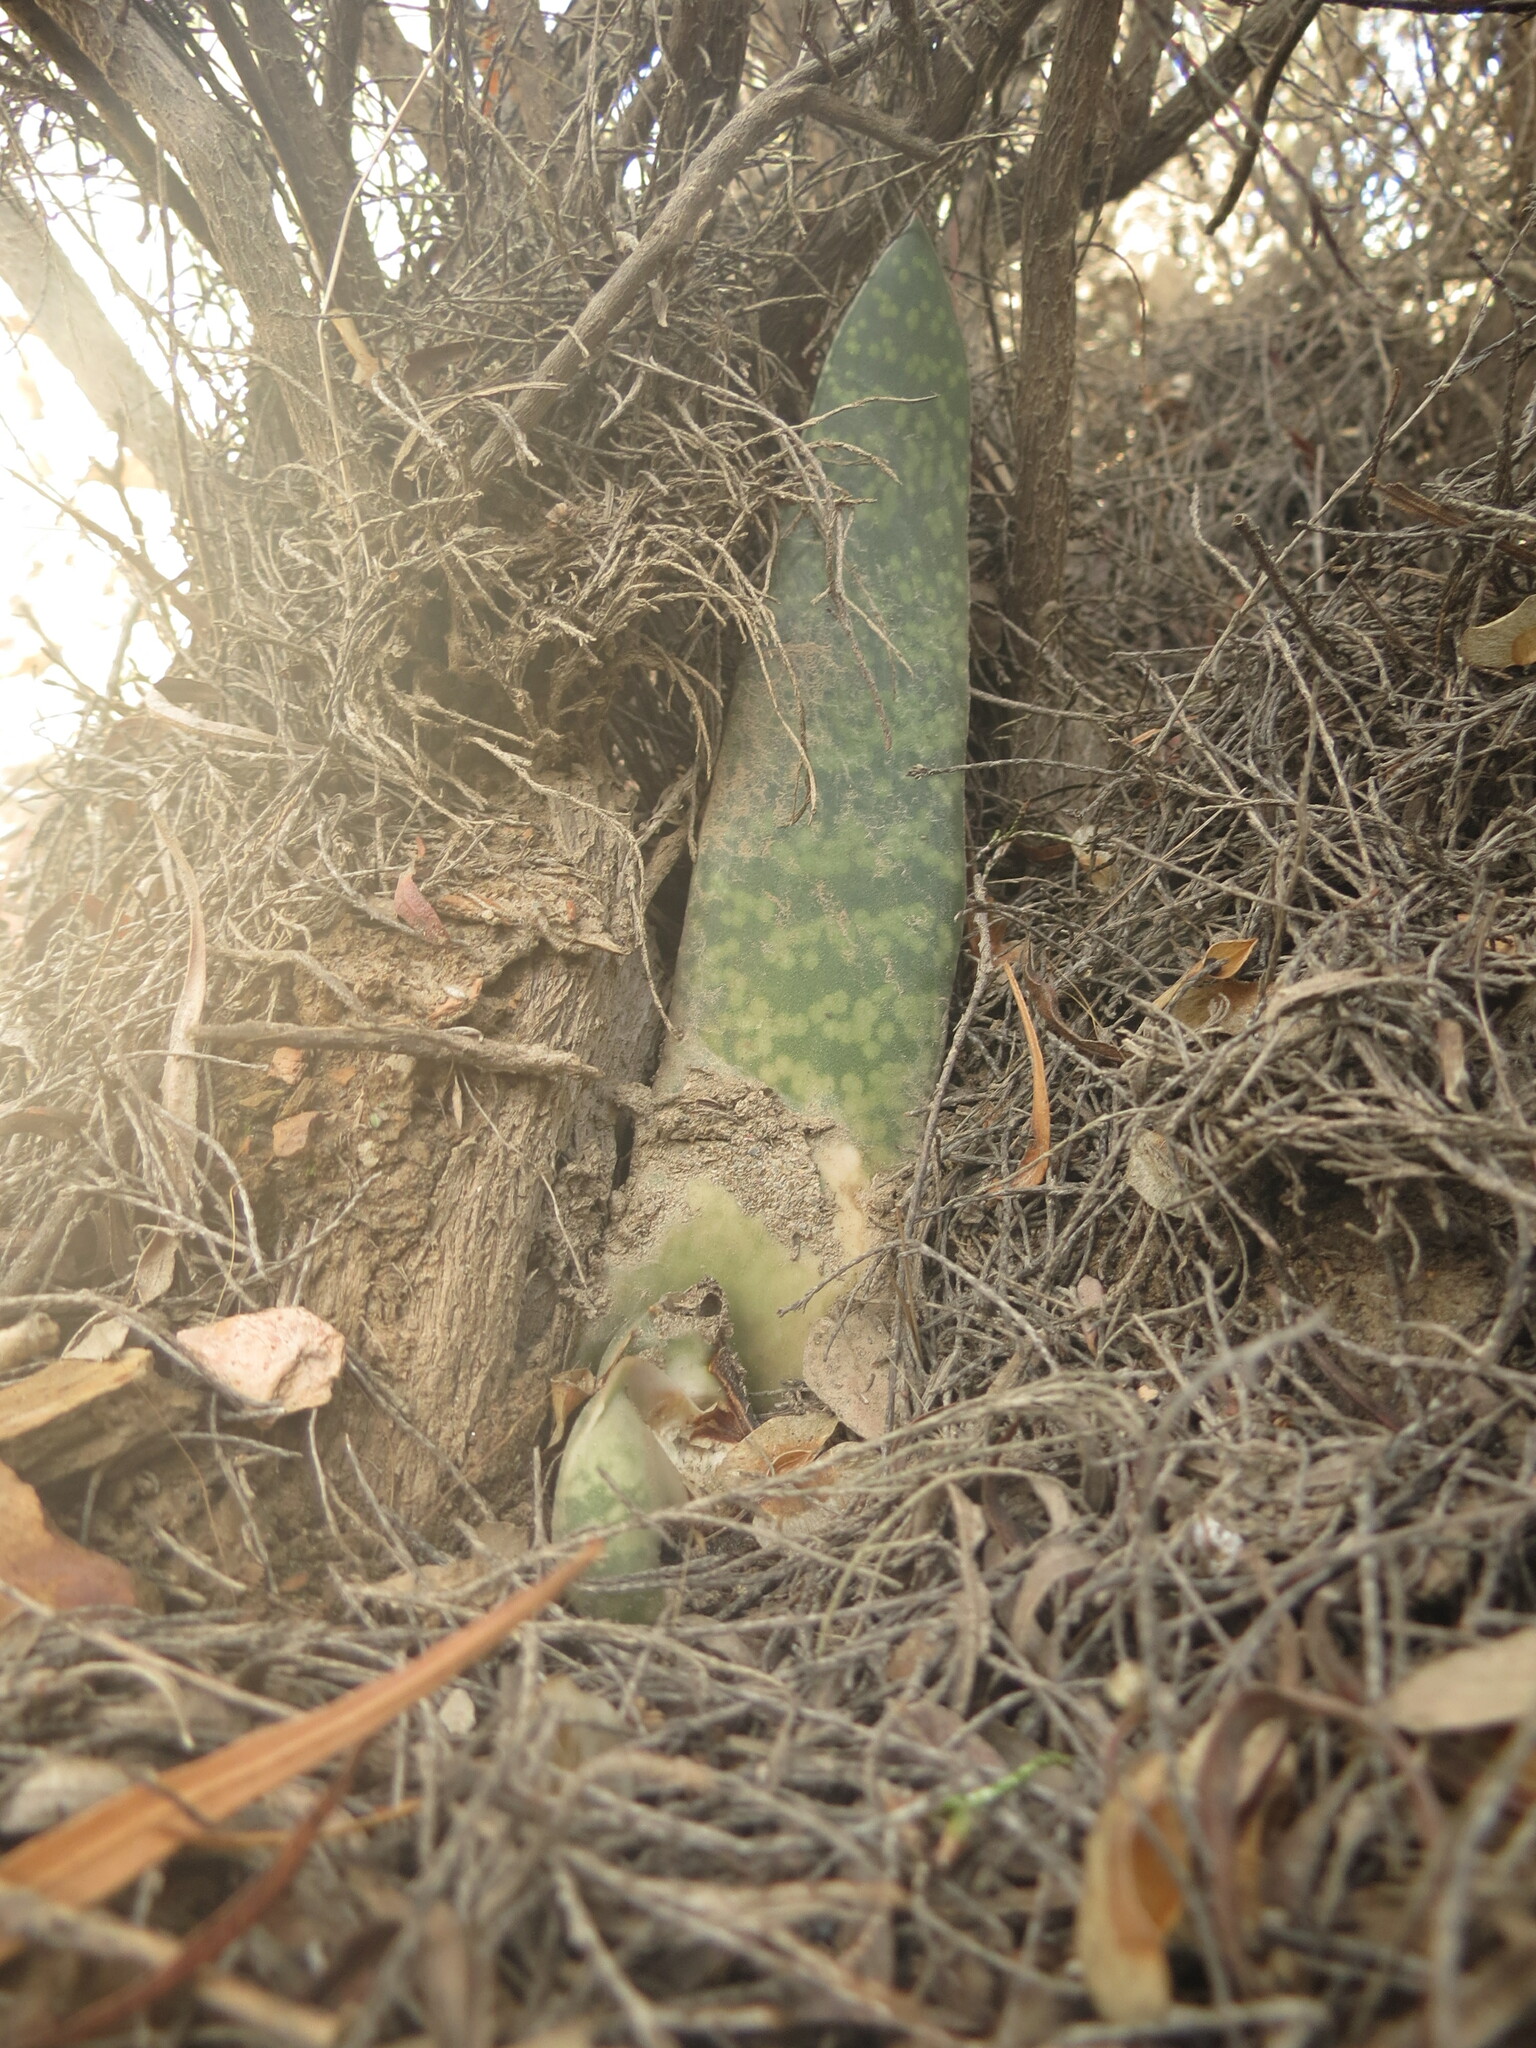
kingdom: Plantae
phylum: Tracheophyta
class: Liliopsida
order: Asparagales
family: Asphodelaceae
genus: Gasteria
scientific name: Gasteria brachyphylla
